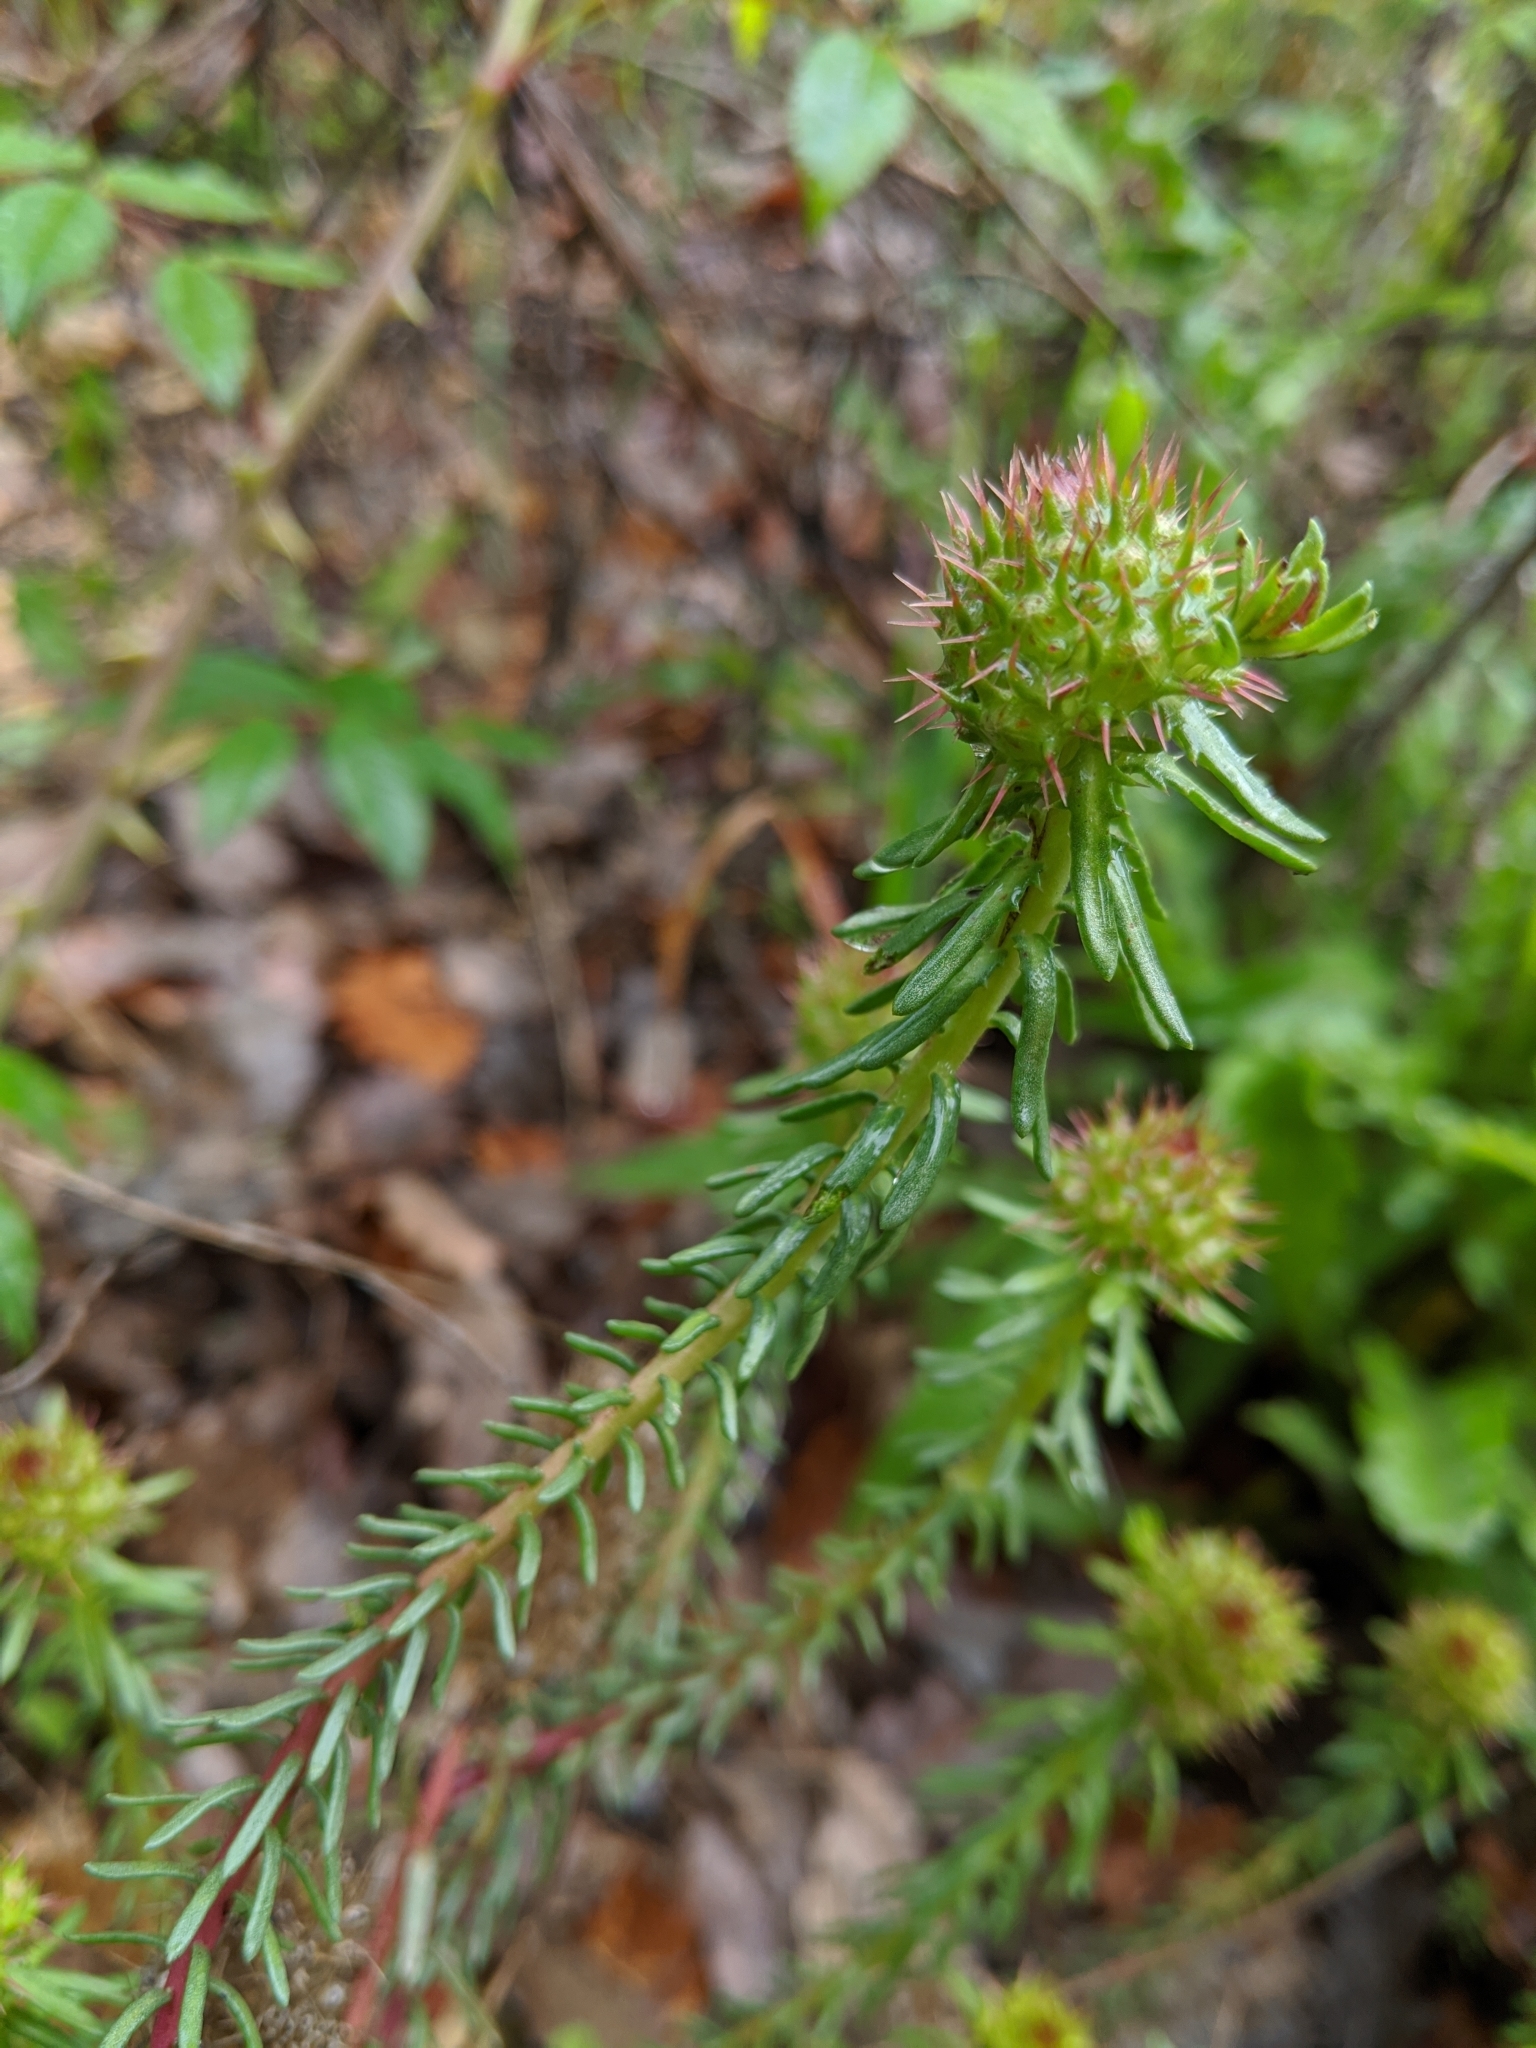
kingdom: Plantae
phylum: Tracheophyta
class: Magnoliopsida
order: Ericales
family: Primulaceae
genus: Coris
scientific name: Coris monspeliensis
